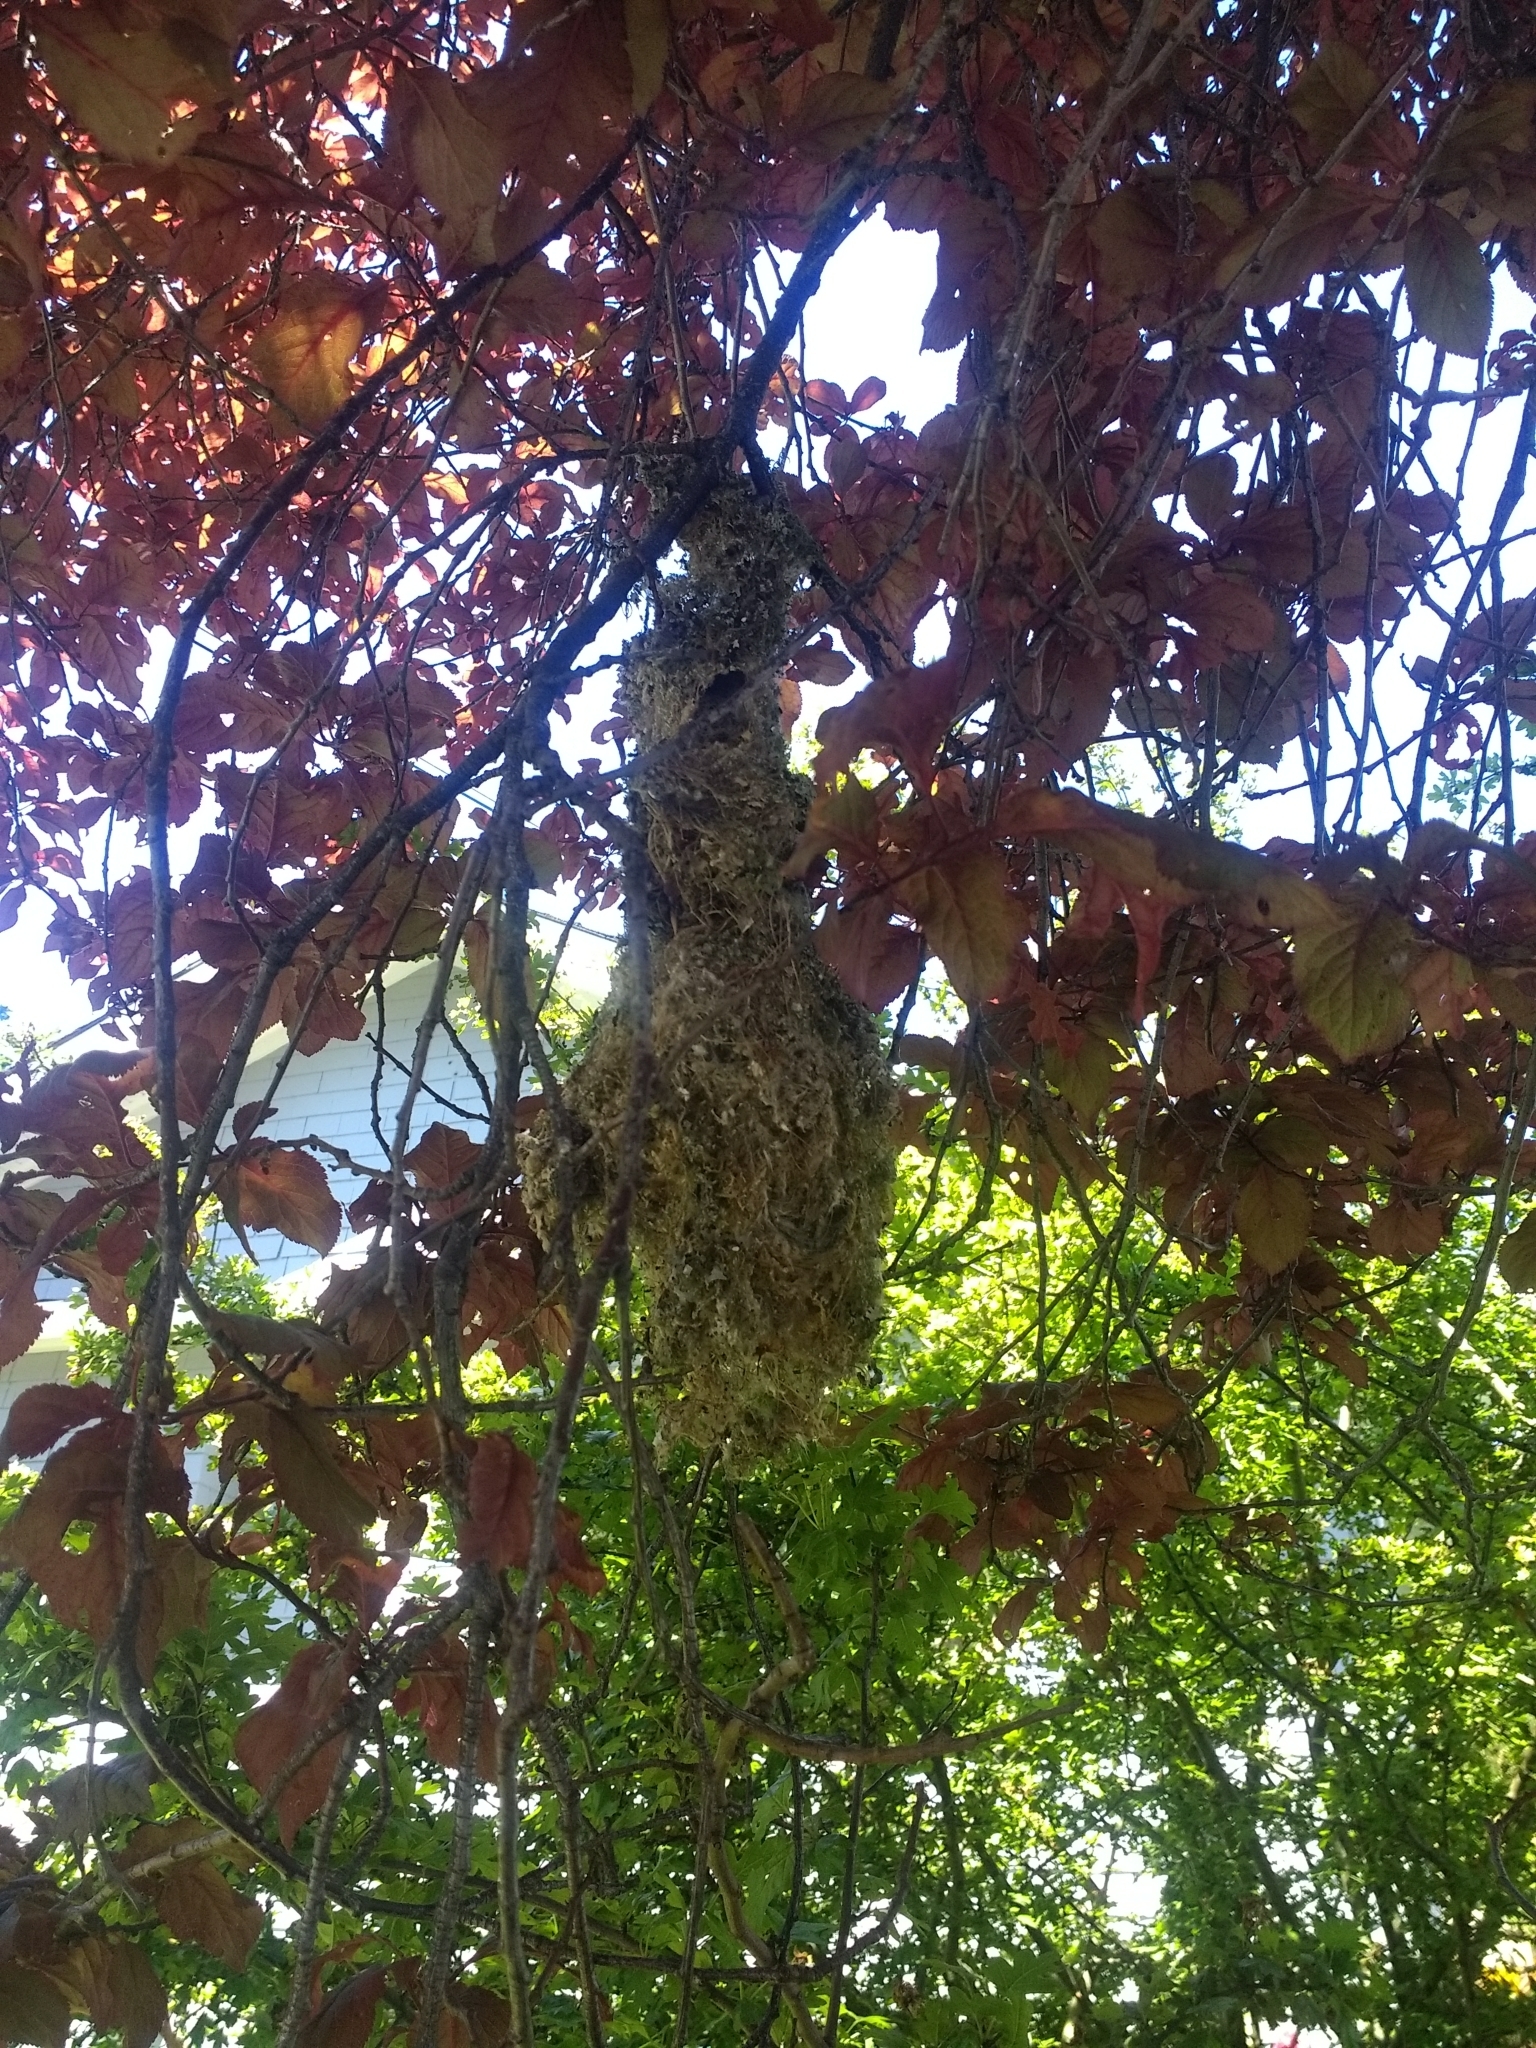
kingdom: Animalia
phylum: Chordata
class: Aves
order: Passeriformes
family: Aegithalidae
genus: Psaltriparus
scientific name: Psaltriparus minimus
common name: American bushtit
